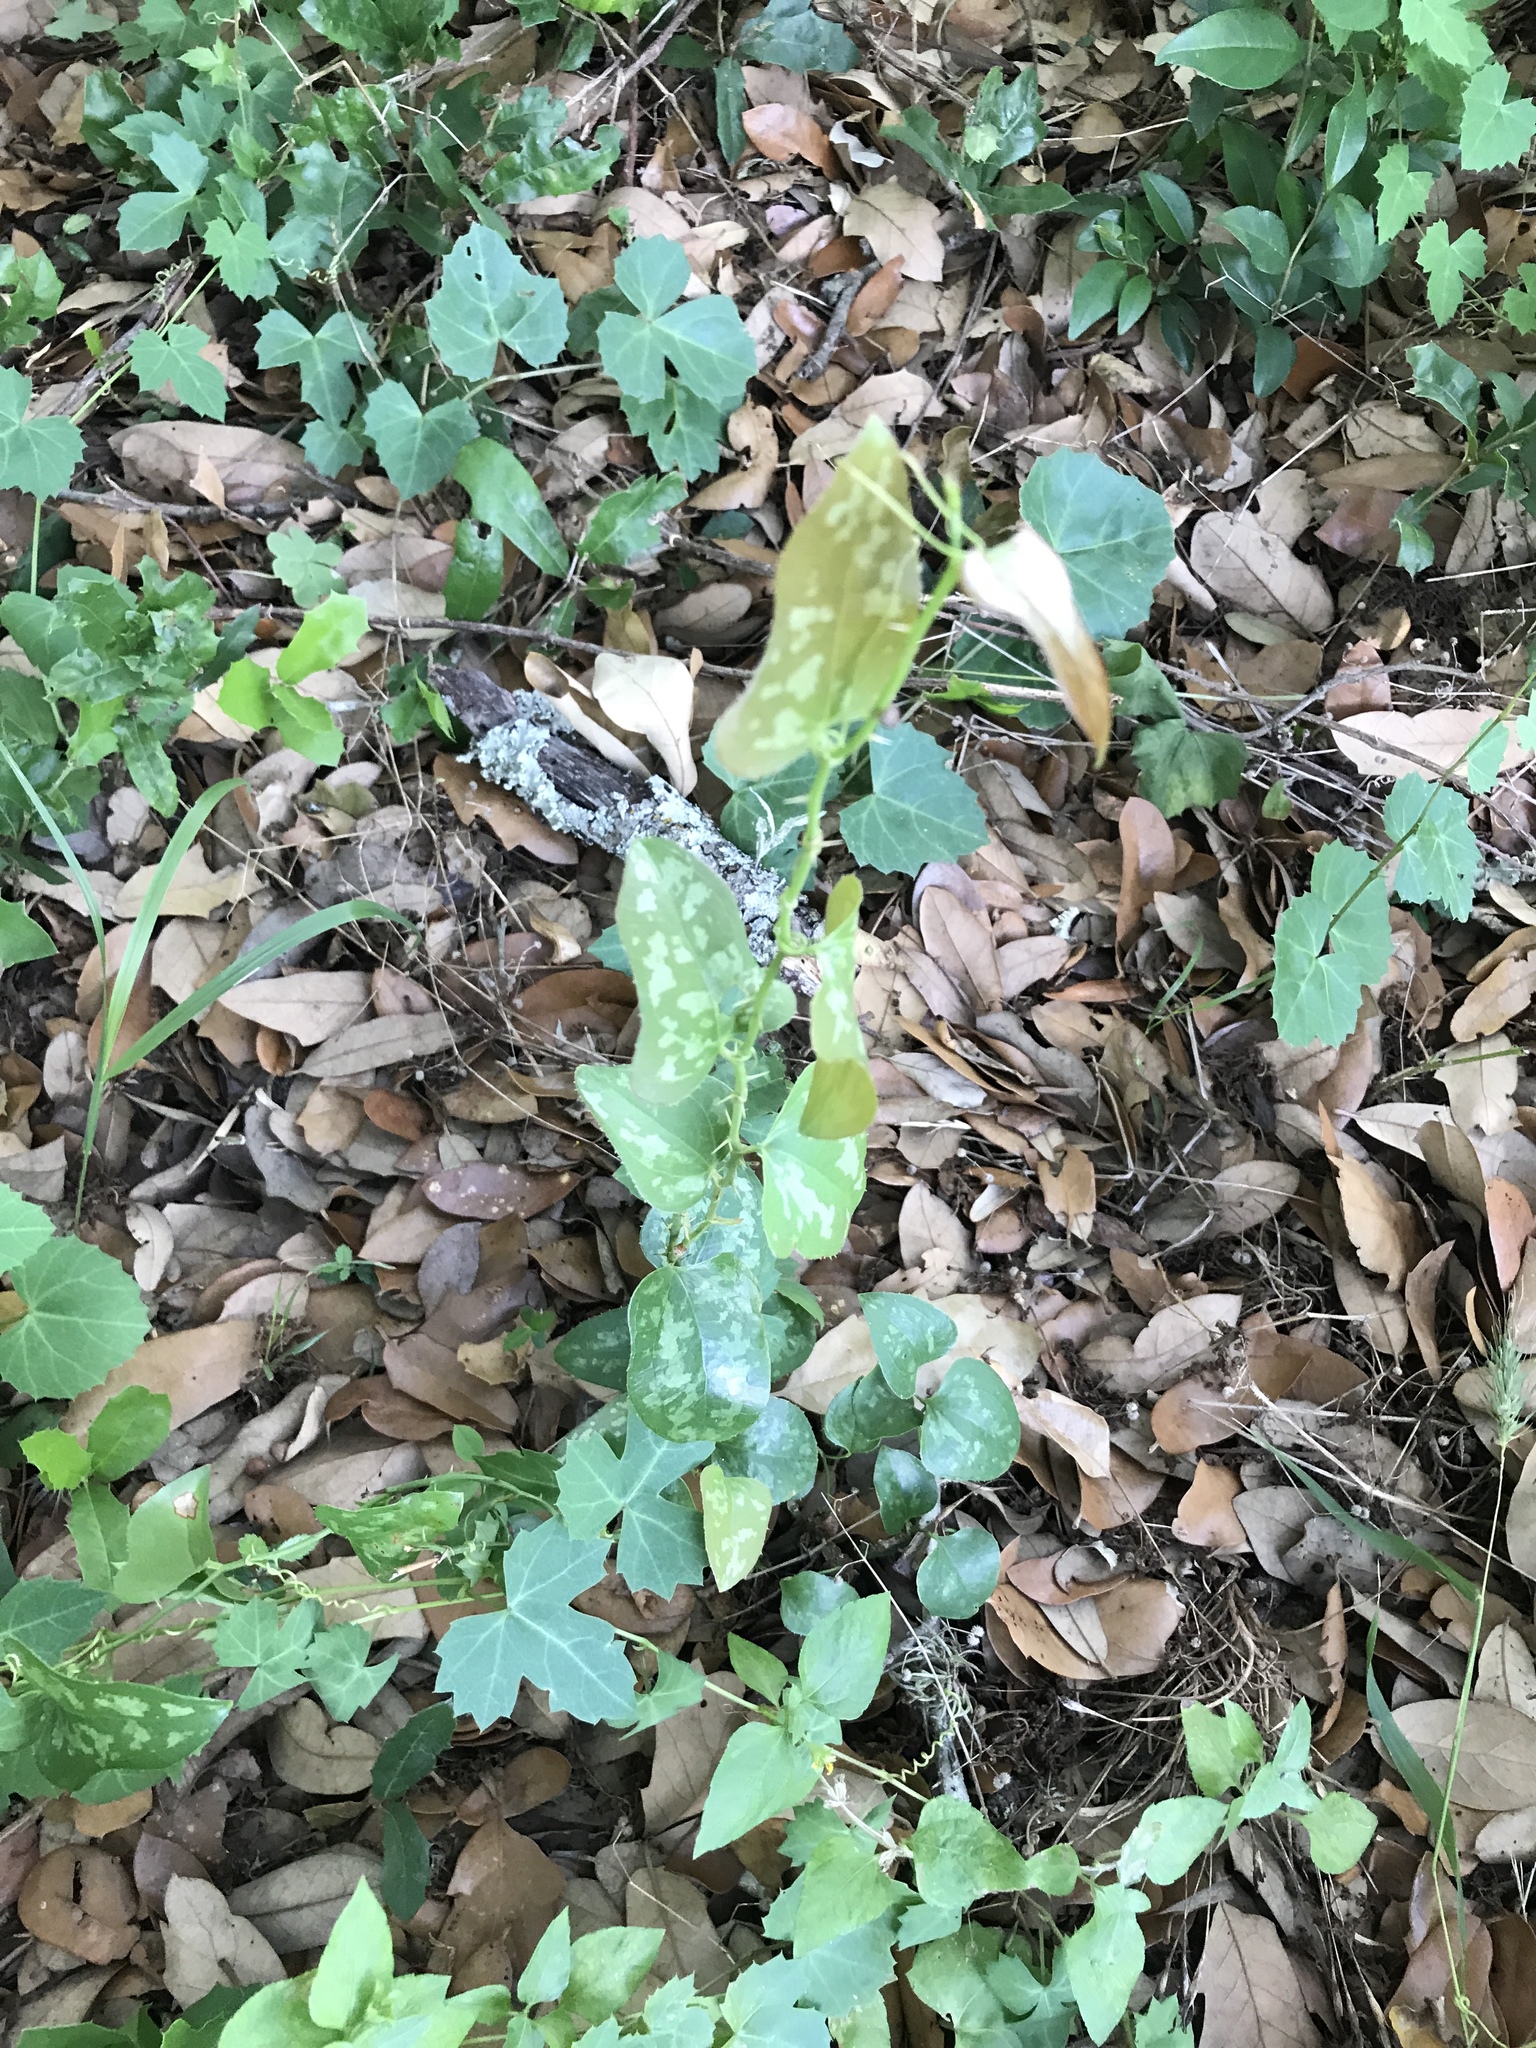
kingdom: Plantae
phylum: Tracheophyta
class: Liliopsida
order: Liliales
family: Smilacaceae
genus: Smilax
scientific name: Smilax bona-nox
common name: Catbrier
